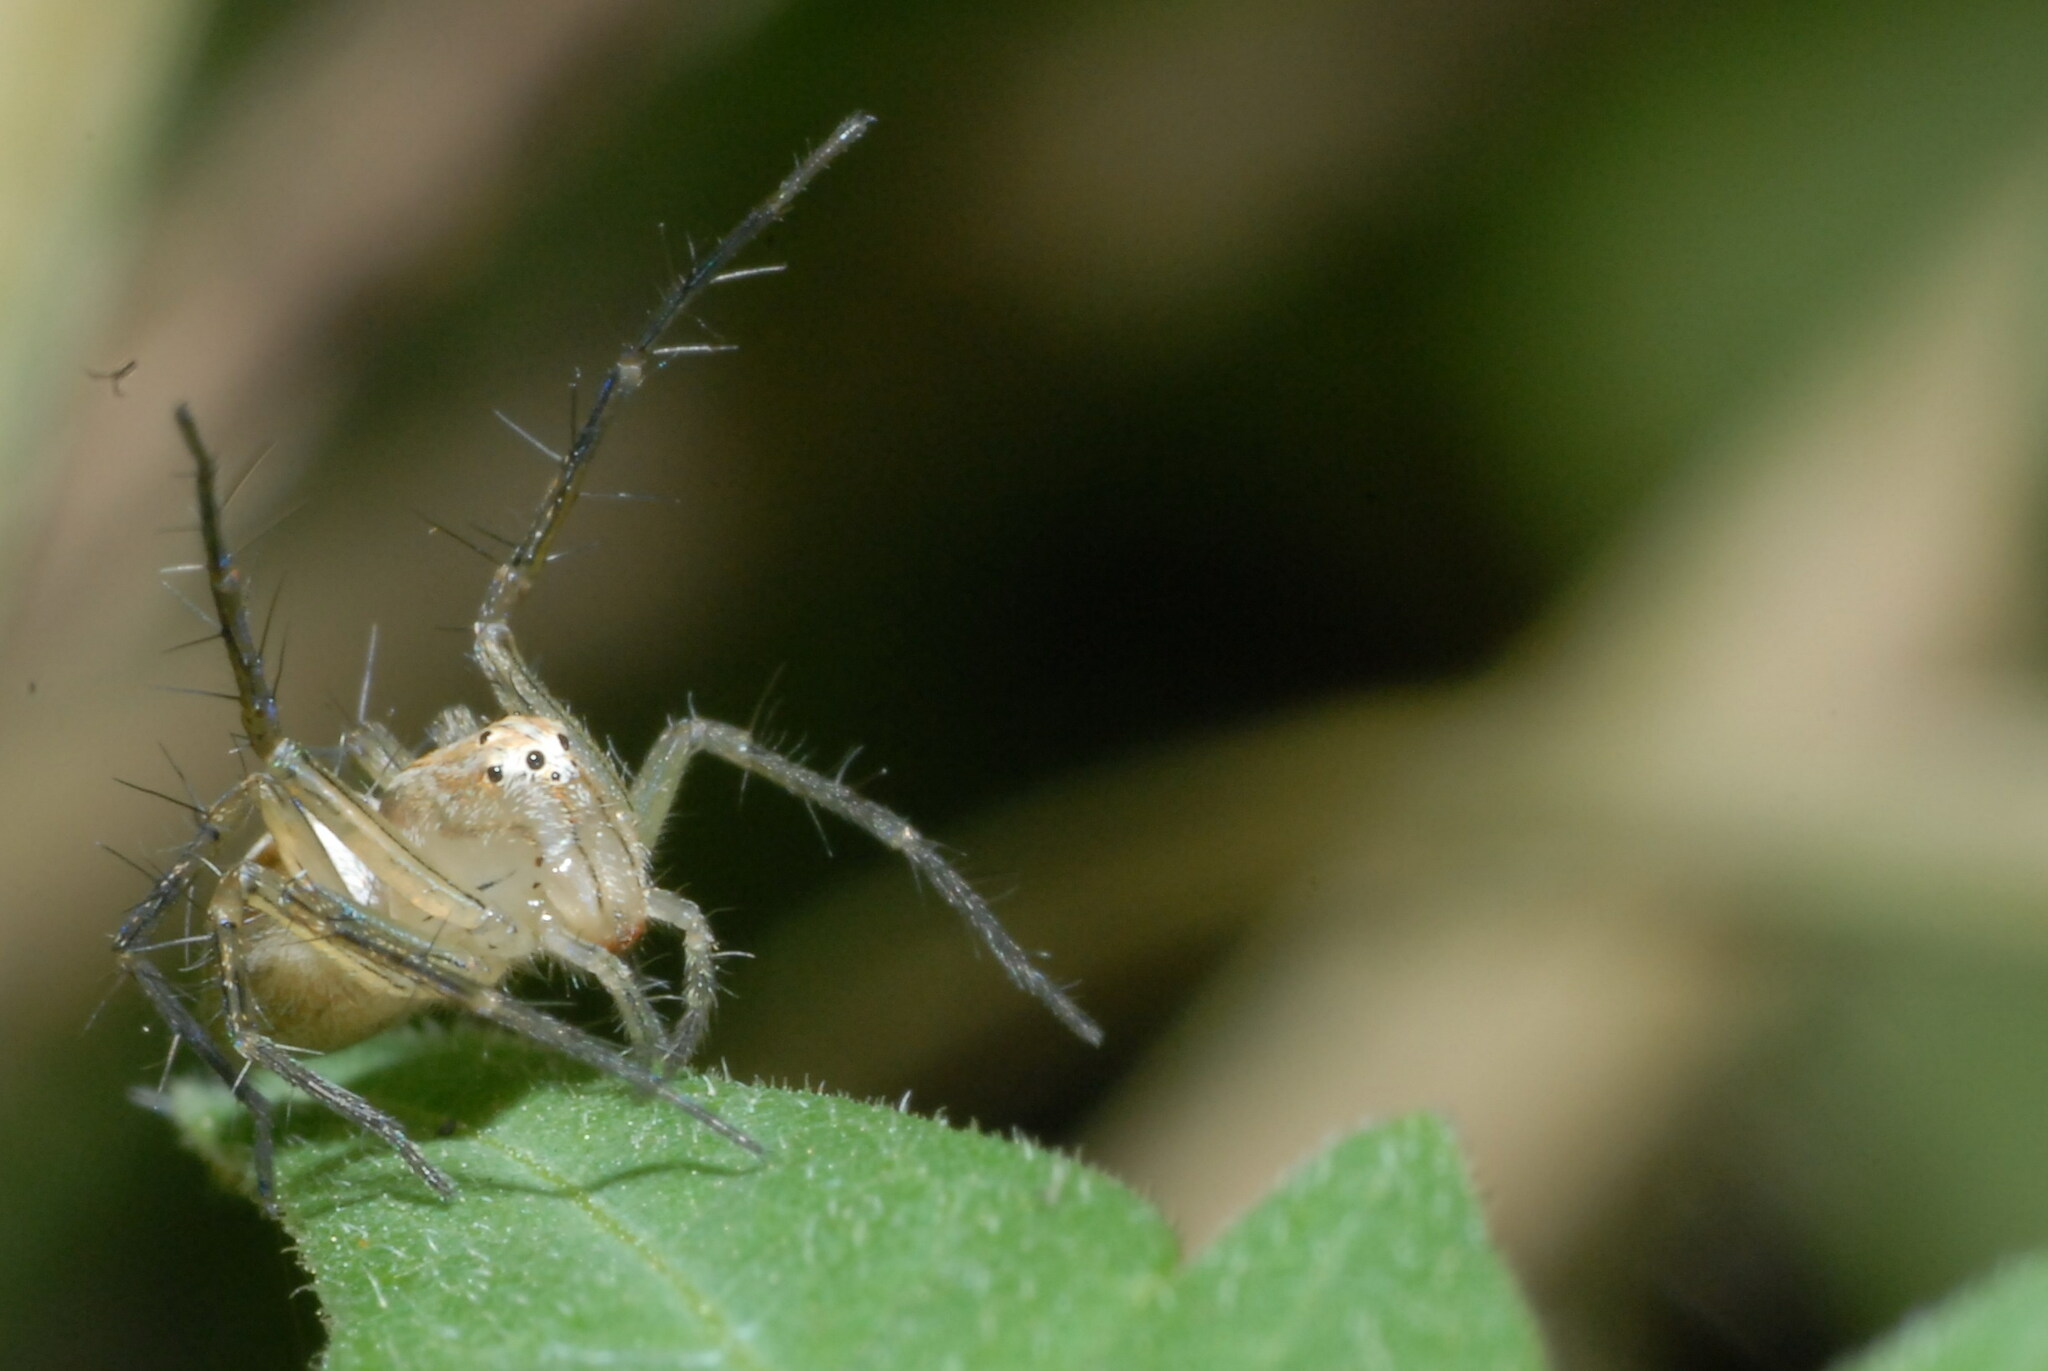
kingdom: Animalia
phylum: Arthropoda
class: Arachnida
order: Araneae
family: Oxyopidae
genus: Oxyopes
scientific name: Oxyopes sertatus
